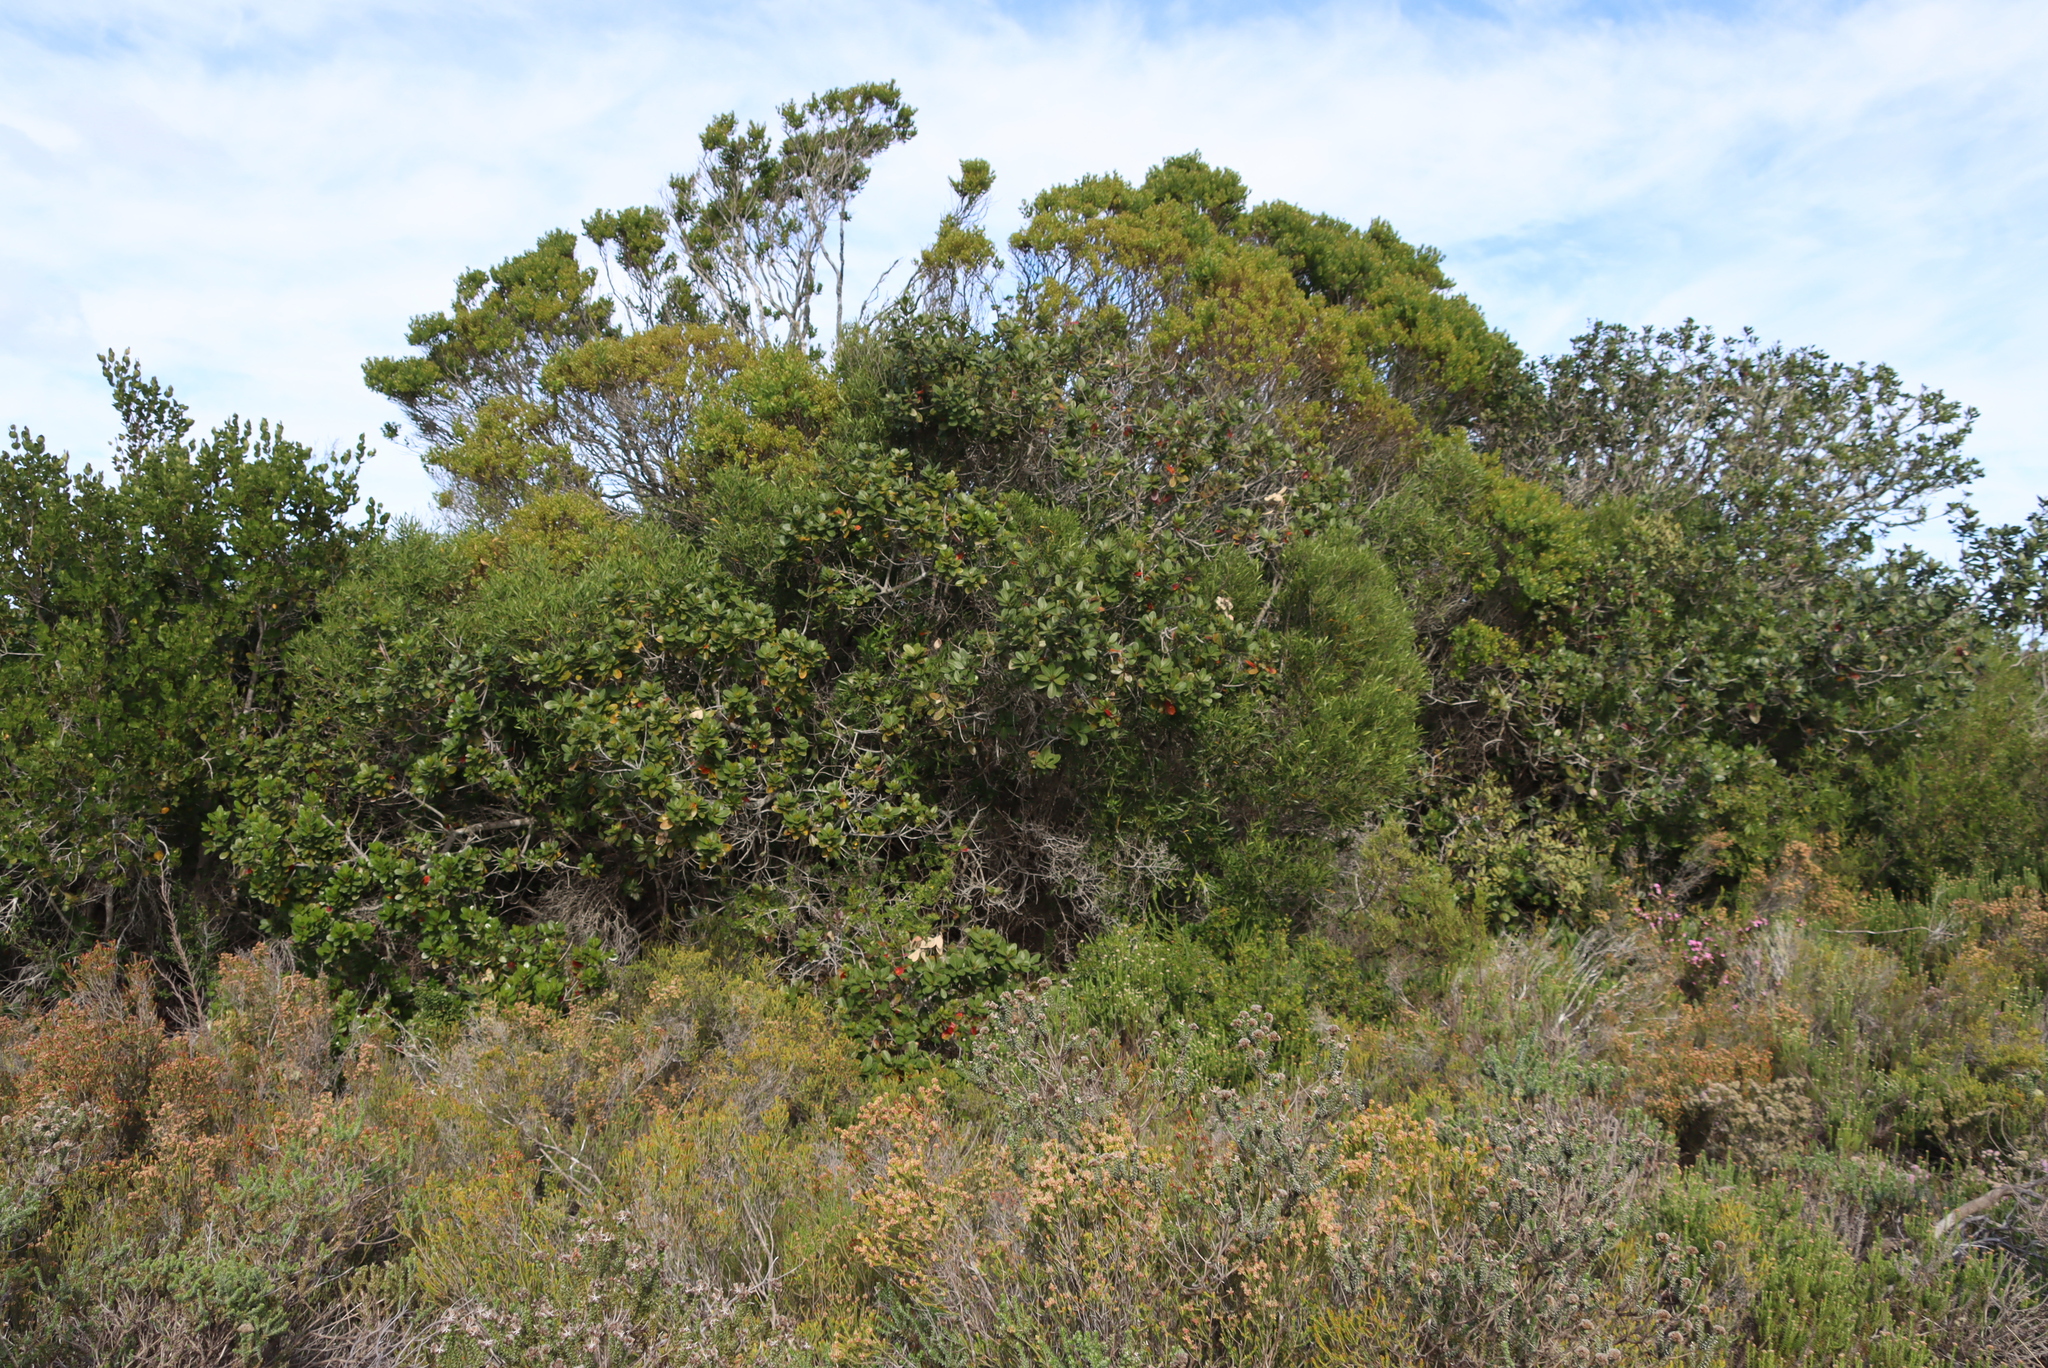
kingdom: Plantae
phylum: Tracheophyta
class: Magnoliopsida
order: Fabales
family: Fabaceae
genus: Acacia
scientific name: Acacia cyclops
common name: Coastal wattle
